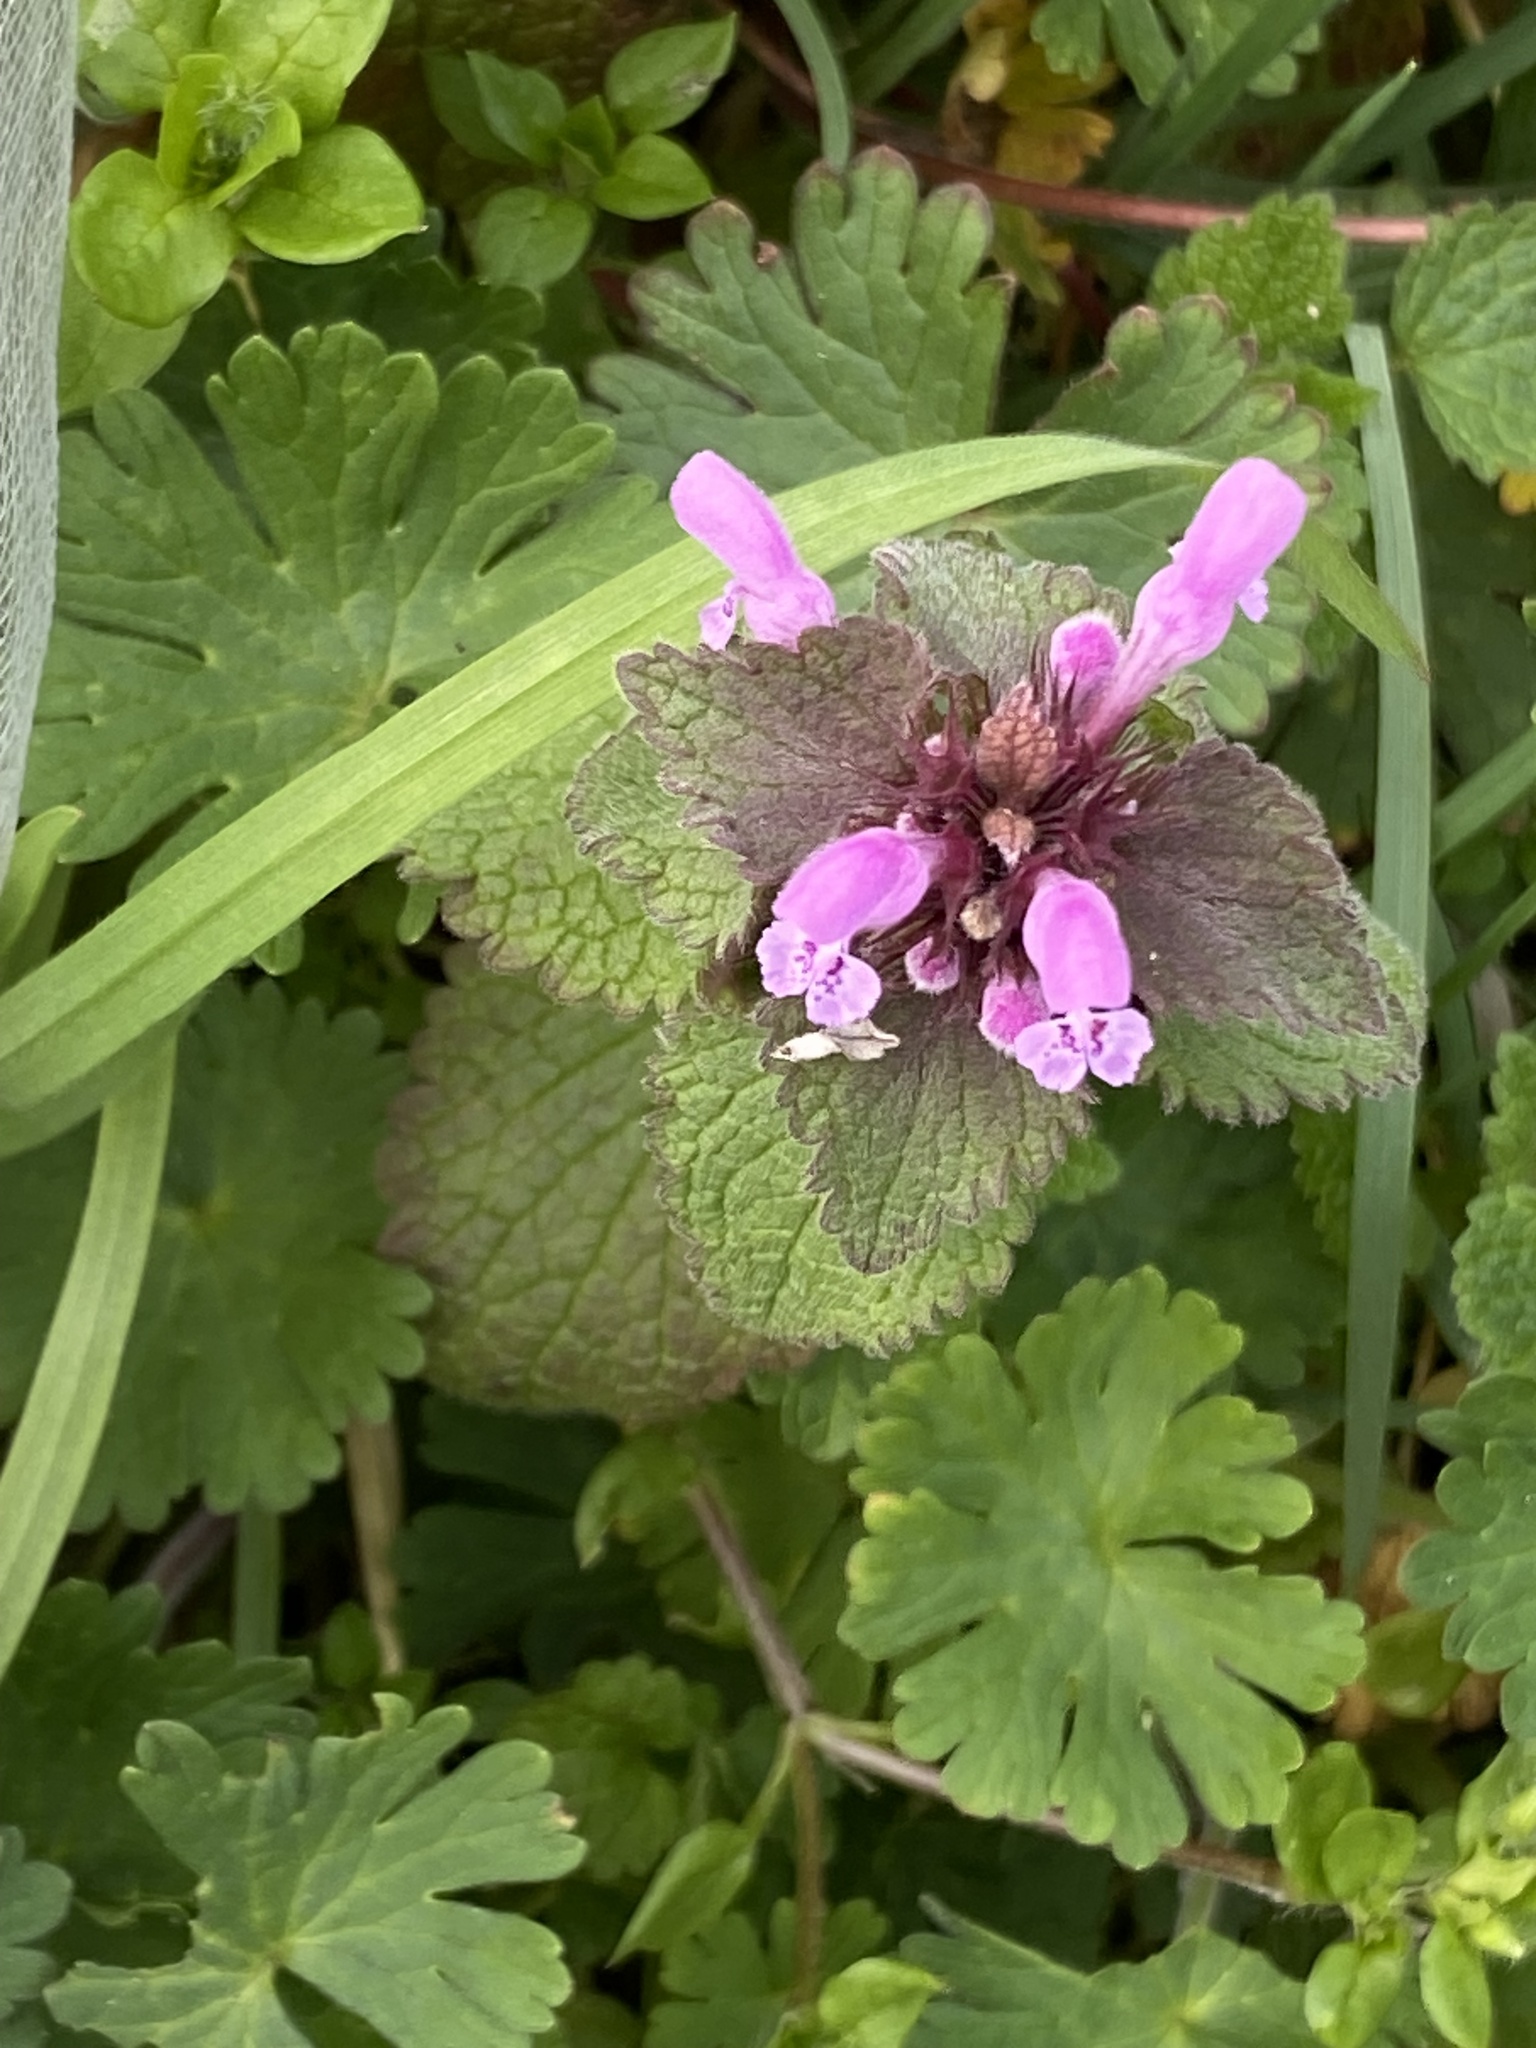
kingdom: Plantae
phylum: Tracheophyta
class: Magnoliopsida
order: Lamiales
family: Lamiaceae
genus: Lamium
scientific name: Lamium purpureum
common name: Red dead-nettle
